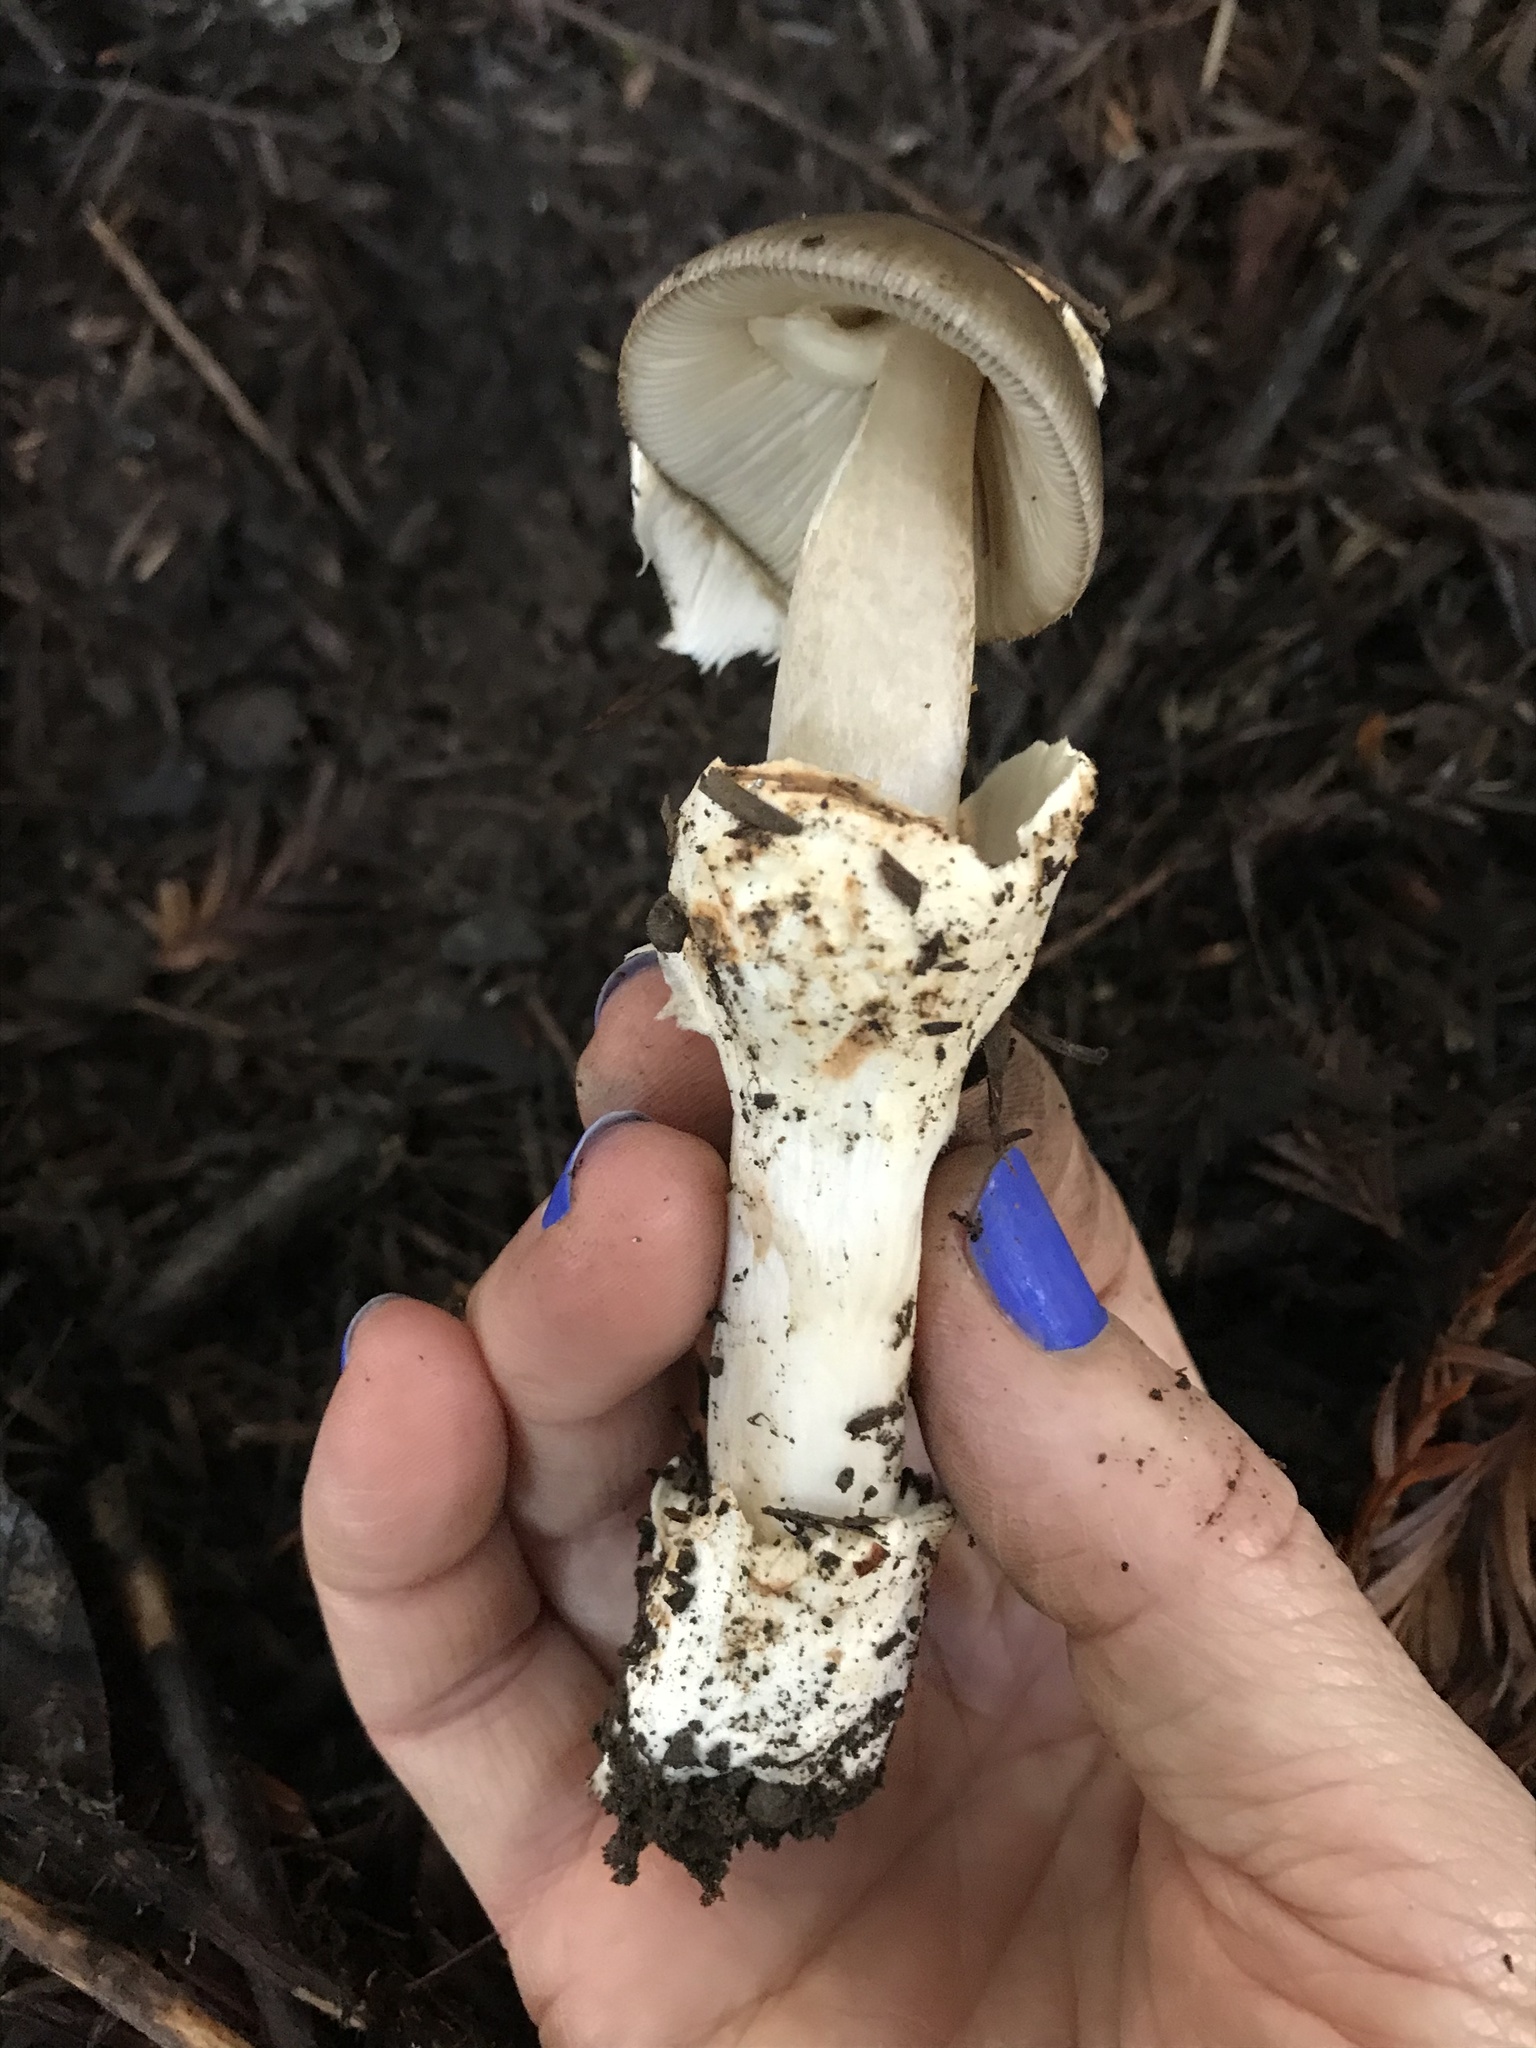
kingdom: Fungi
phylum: Basidiomycota
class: Agaricomycetes
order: Agaricales
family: Amanitaceae
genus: Amanita
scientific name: Amanita constricta
